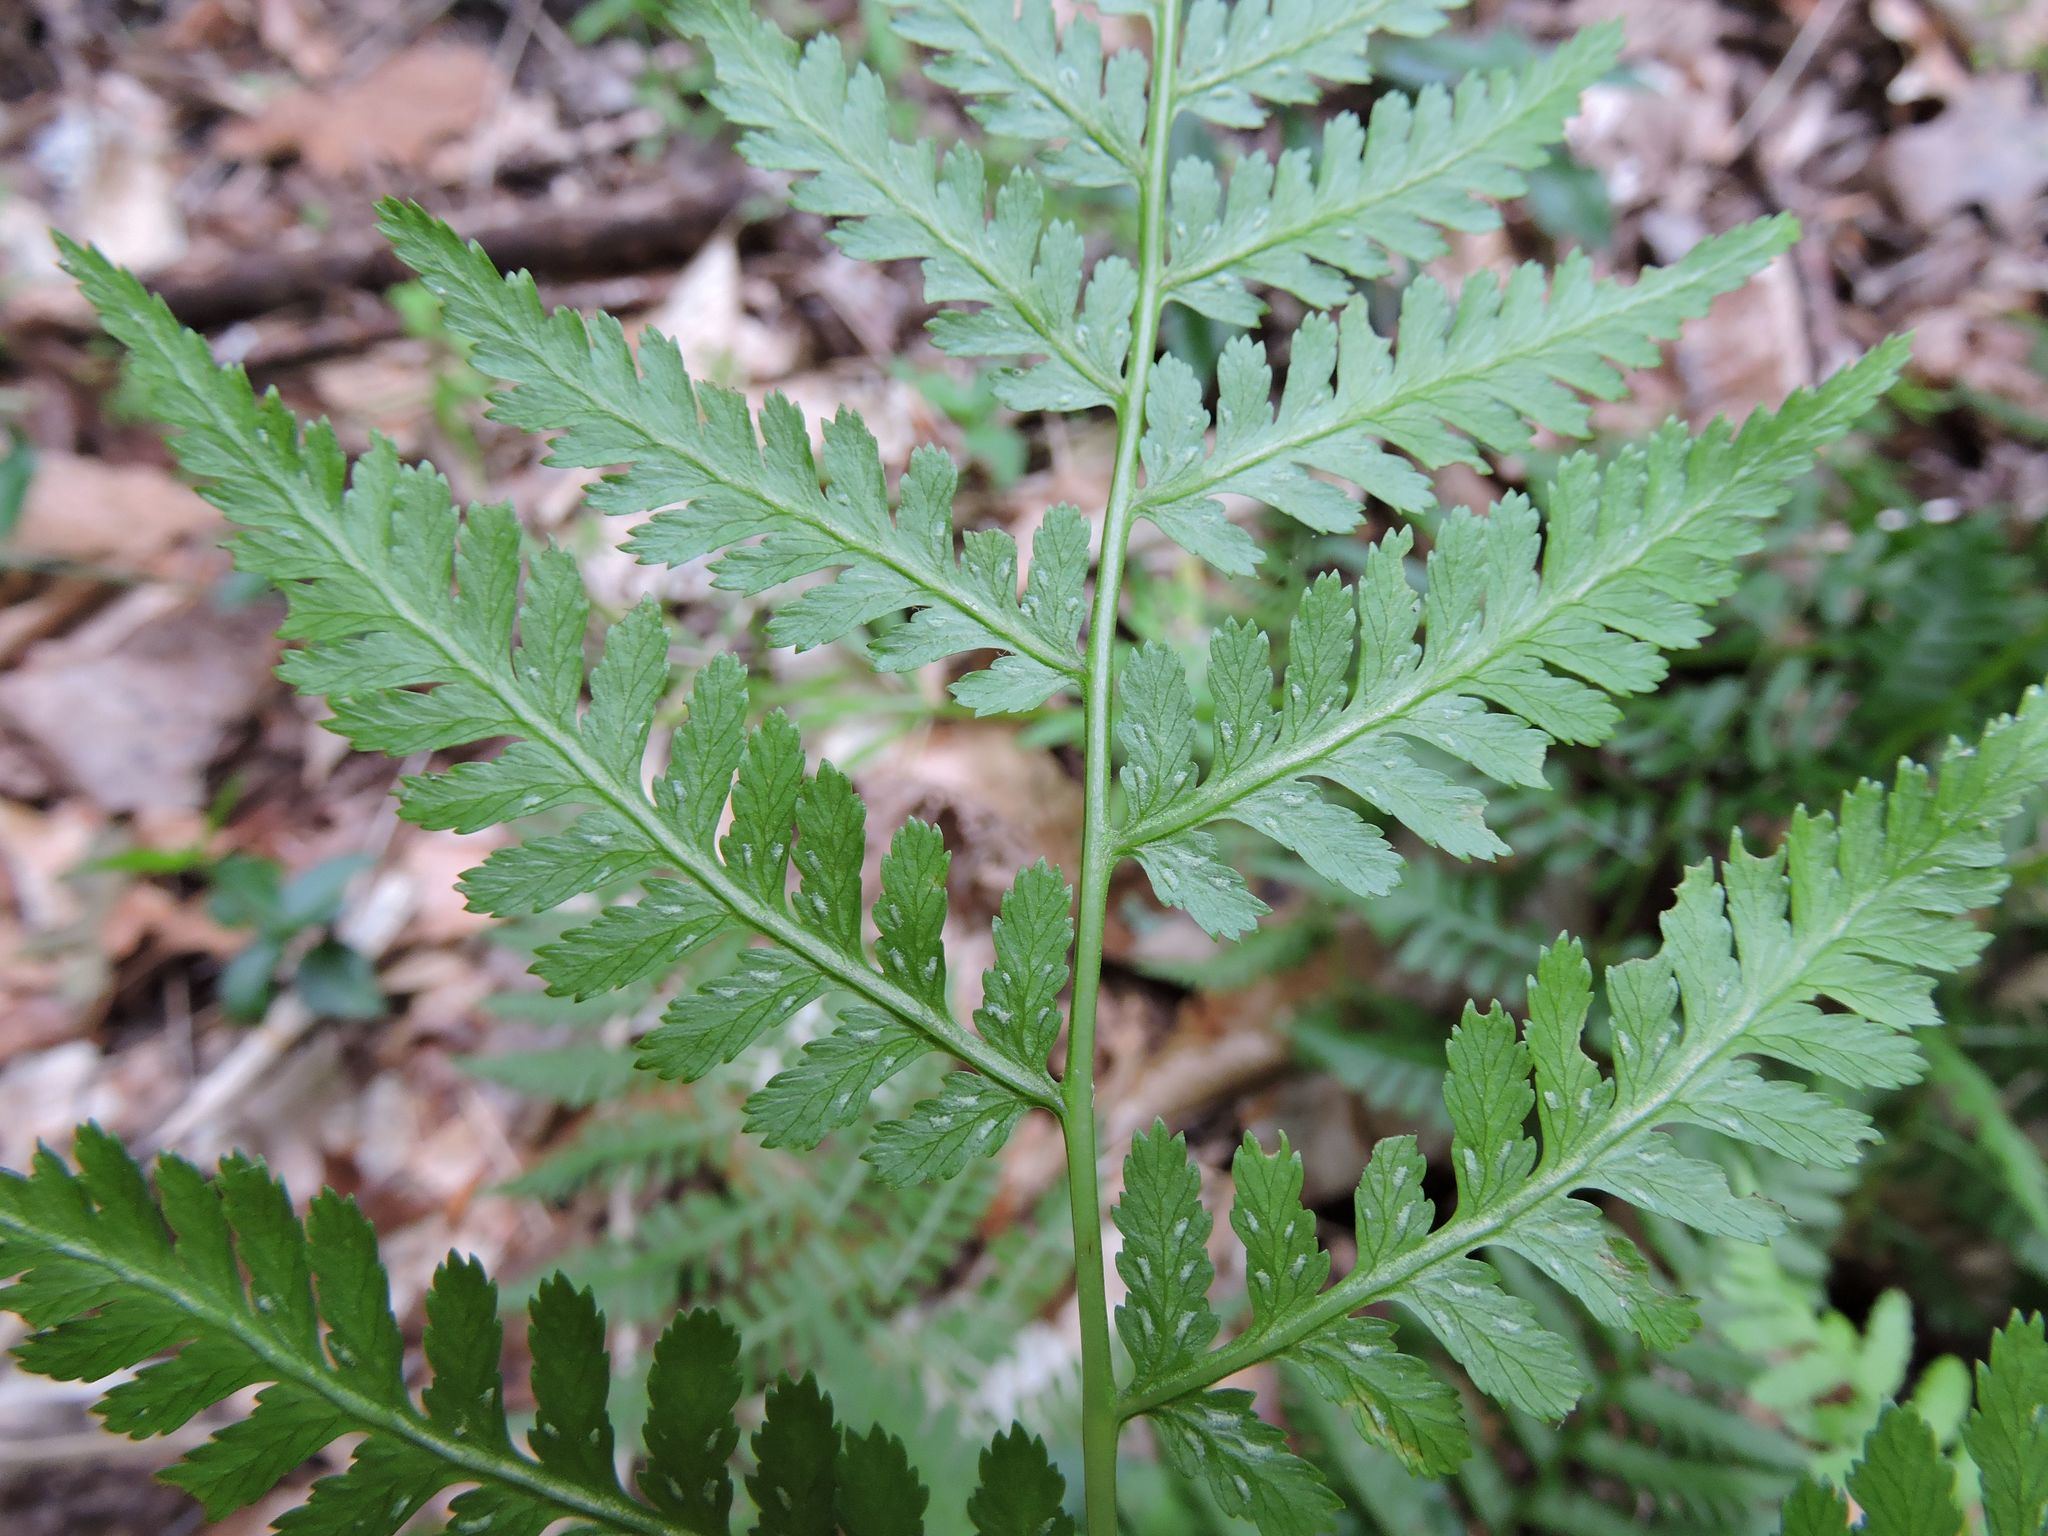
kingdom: Plantae
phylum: Tracheophyta
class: Polypodiopsida
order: Polypodiales
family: Athyriaceae
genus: Athyrium
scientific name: Athyrium asplenioides
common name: Southern lady fern
